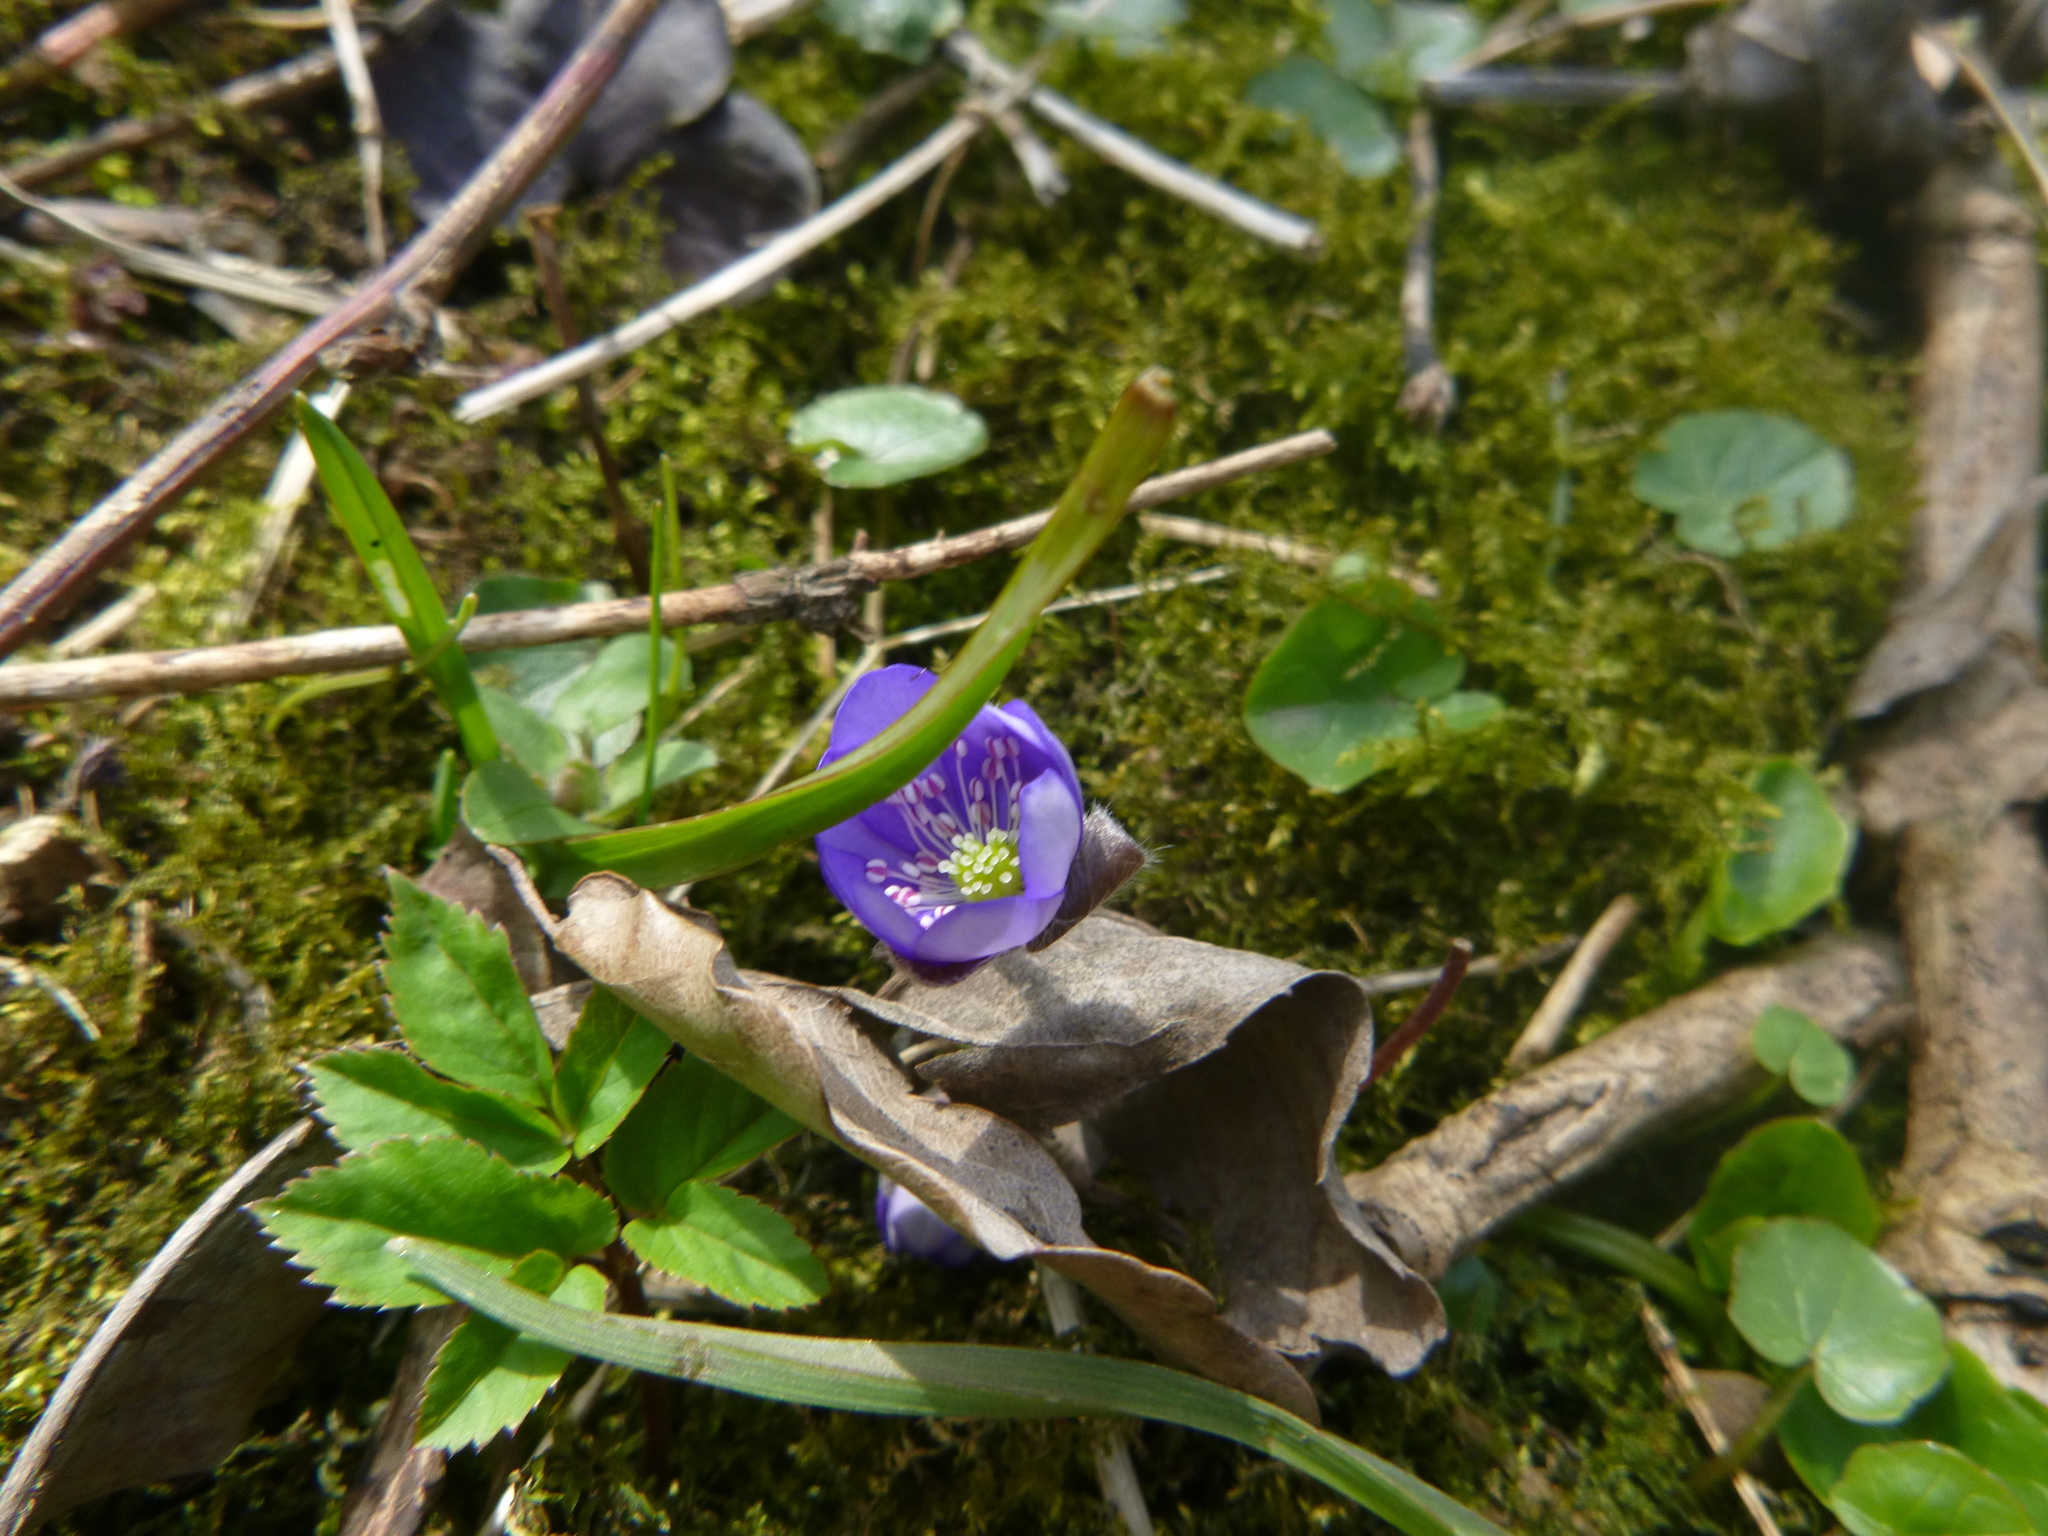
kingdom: Plantae
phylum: Tracheophyta
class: Magnoliopsida
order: Ranunculales
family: Ranunculaceae
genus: Hepatica
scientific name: Hepatica nobilis
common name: Liverleaf
